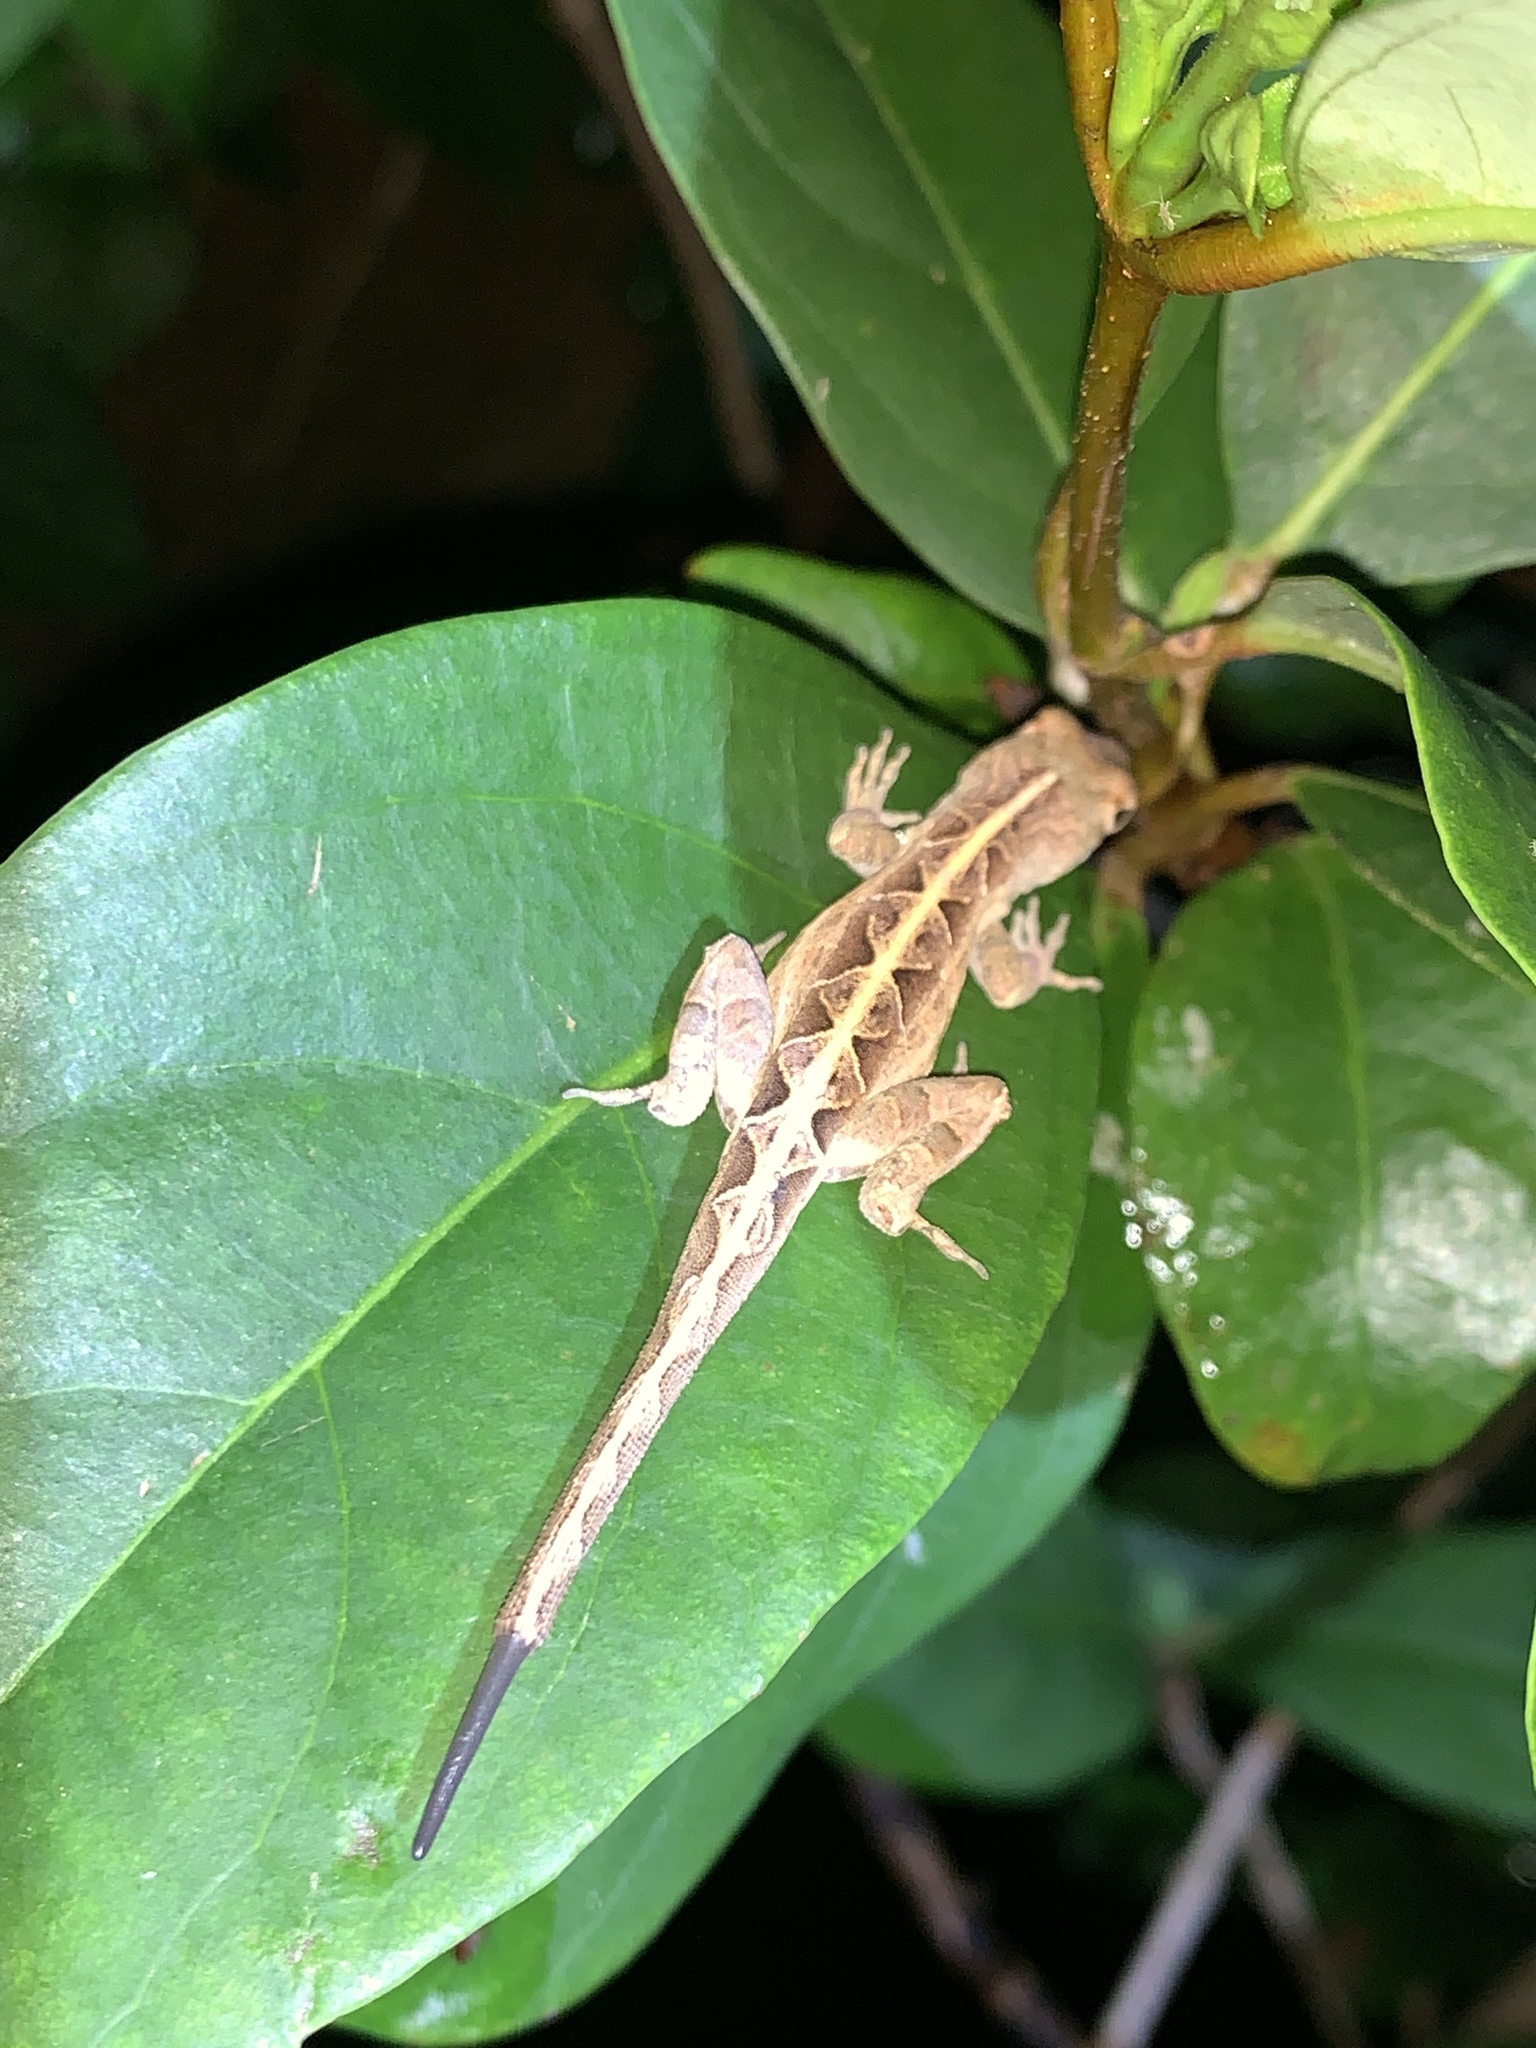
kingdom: Animalia
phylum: Chordata
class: Squamata
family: Dactyloidae
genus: Anolis
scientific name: Anolis sagrei
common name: Brown anole
